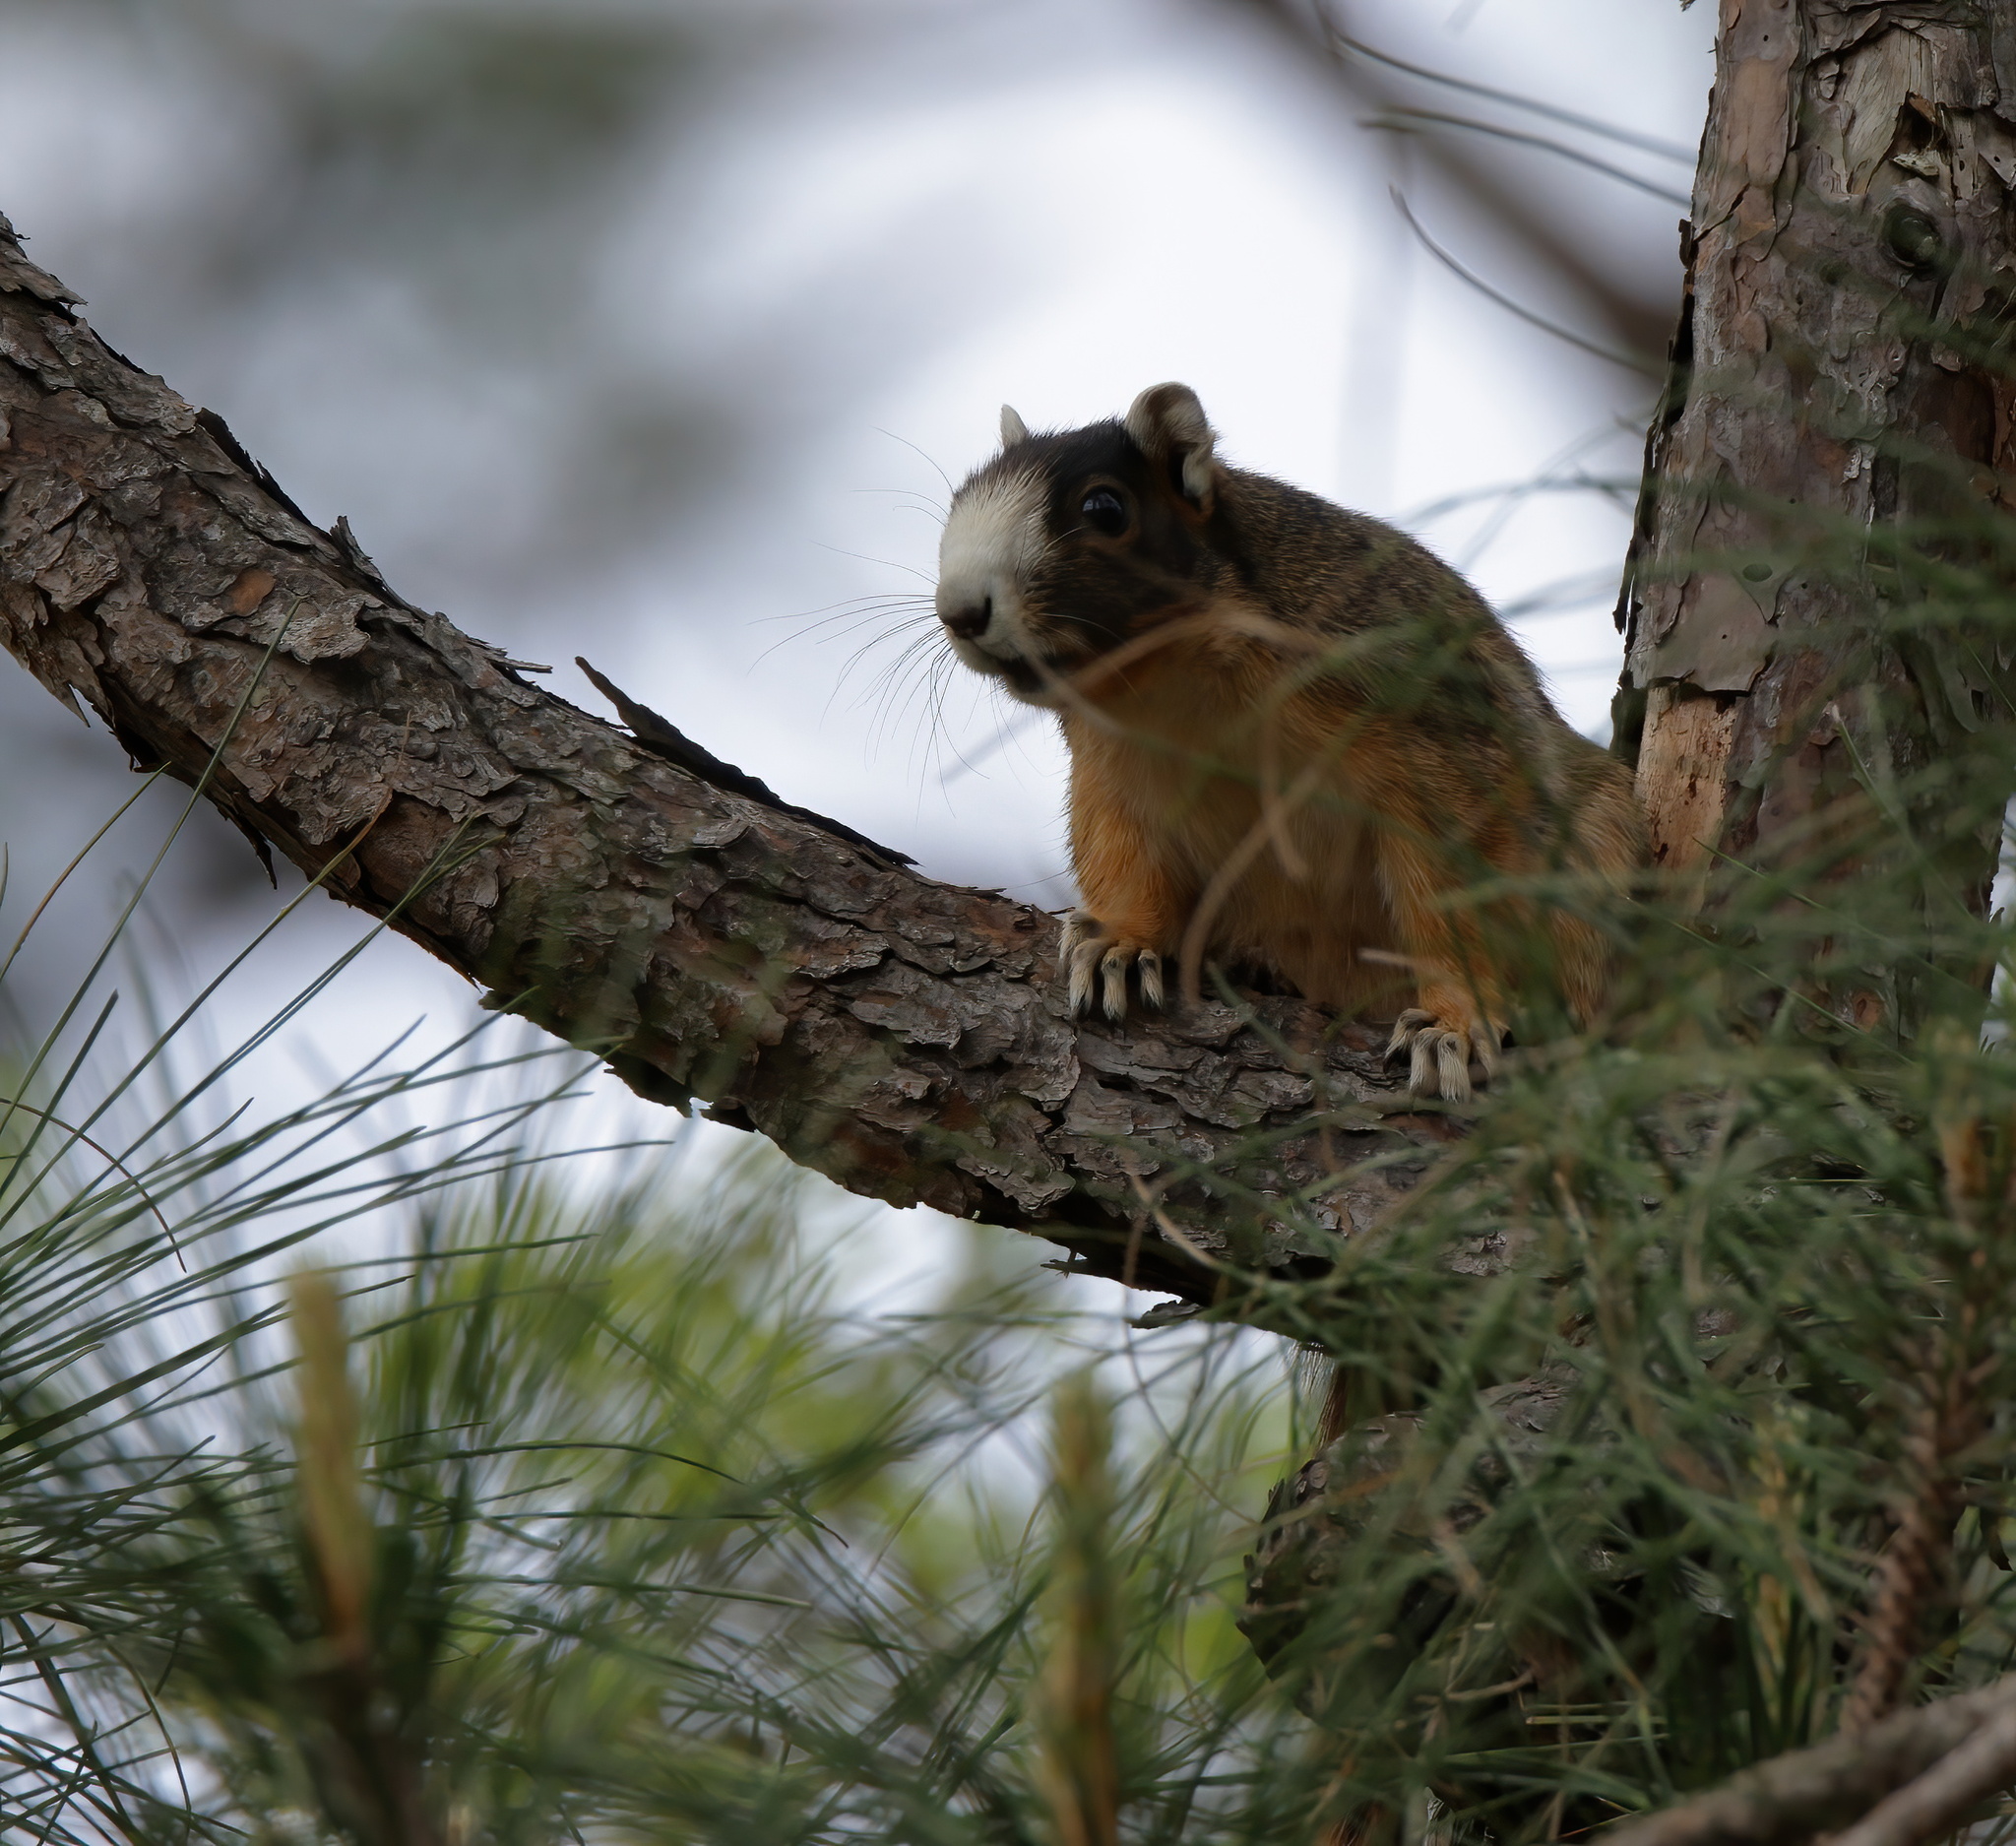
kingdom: Animalia
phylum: Chordata
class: Mammalia
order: Rodentia
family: Sciuridae
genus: Sciurus
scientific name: Sciurus niger
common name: Fox squirrel
